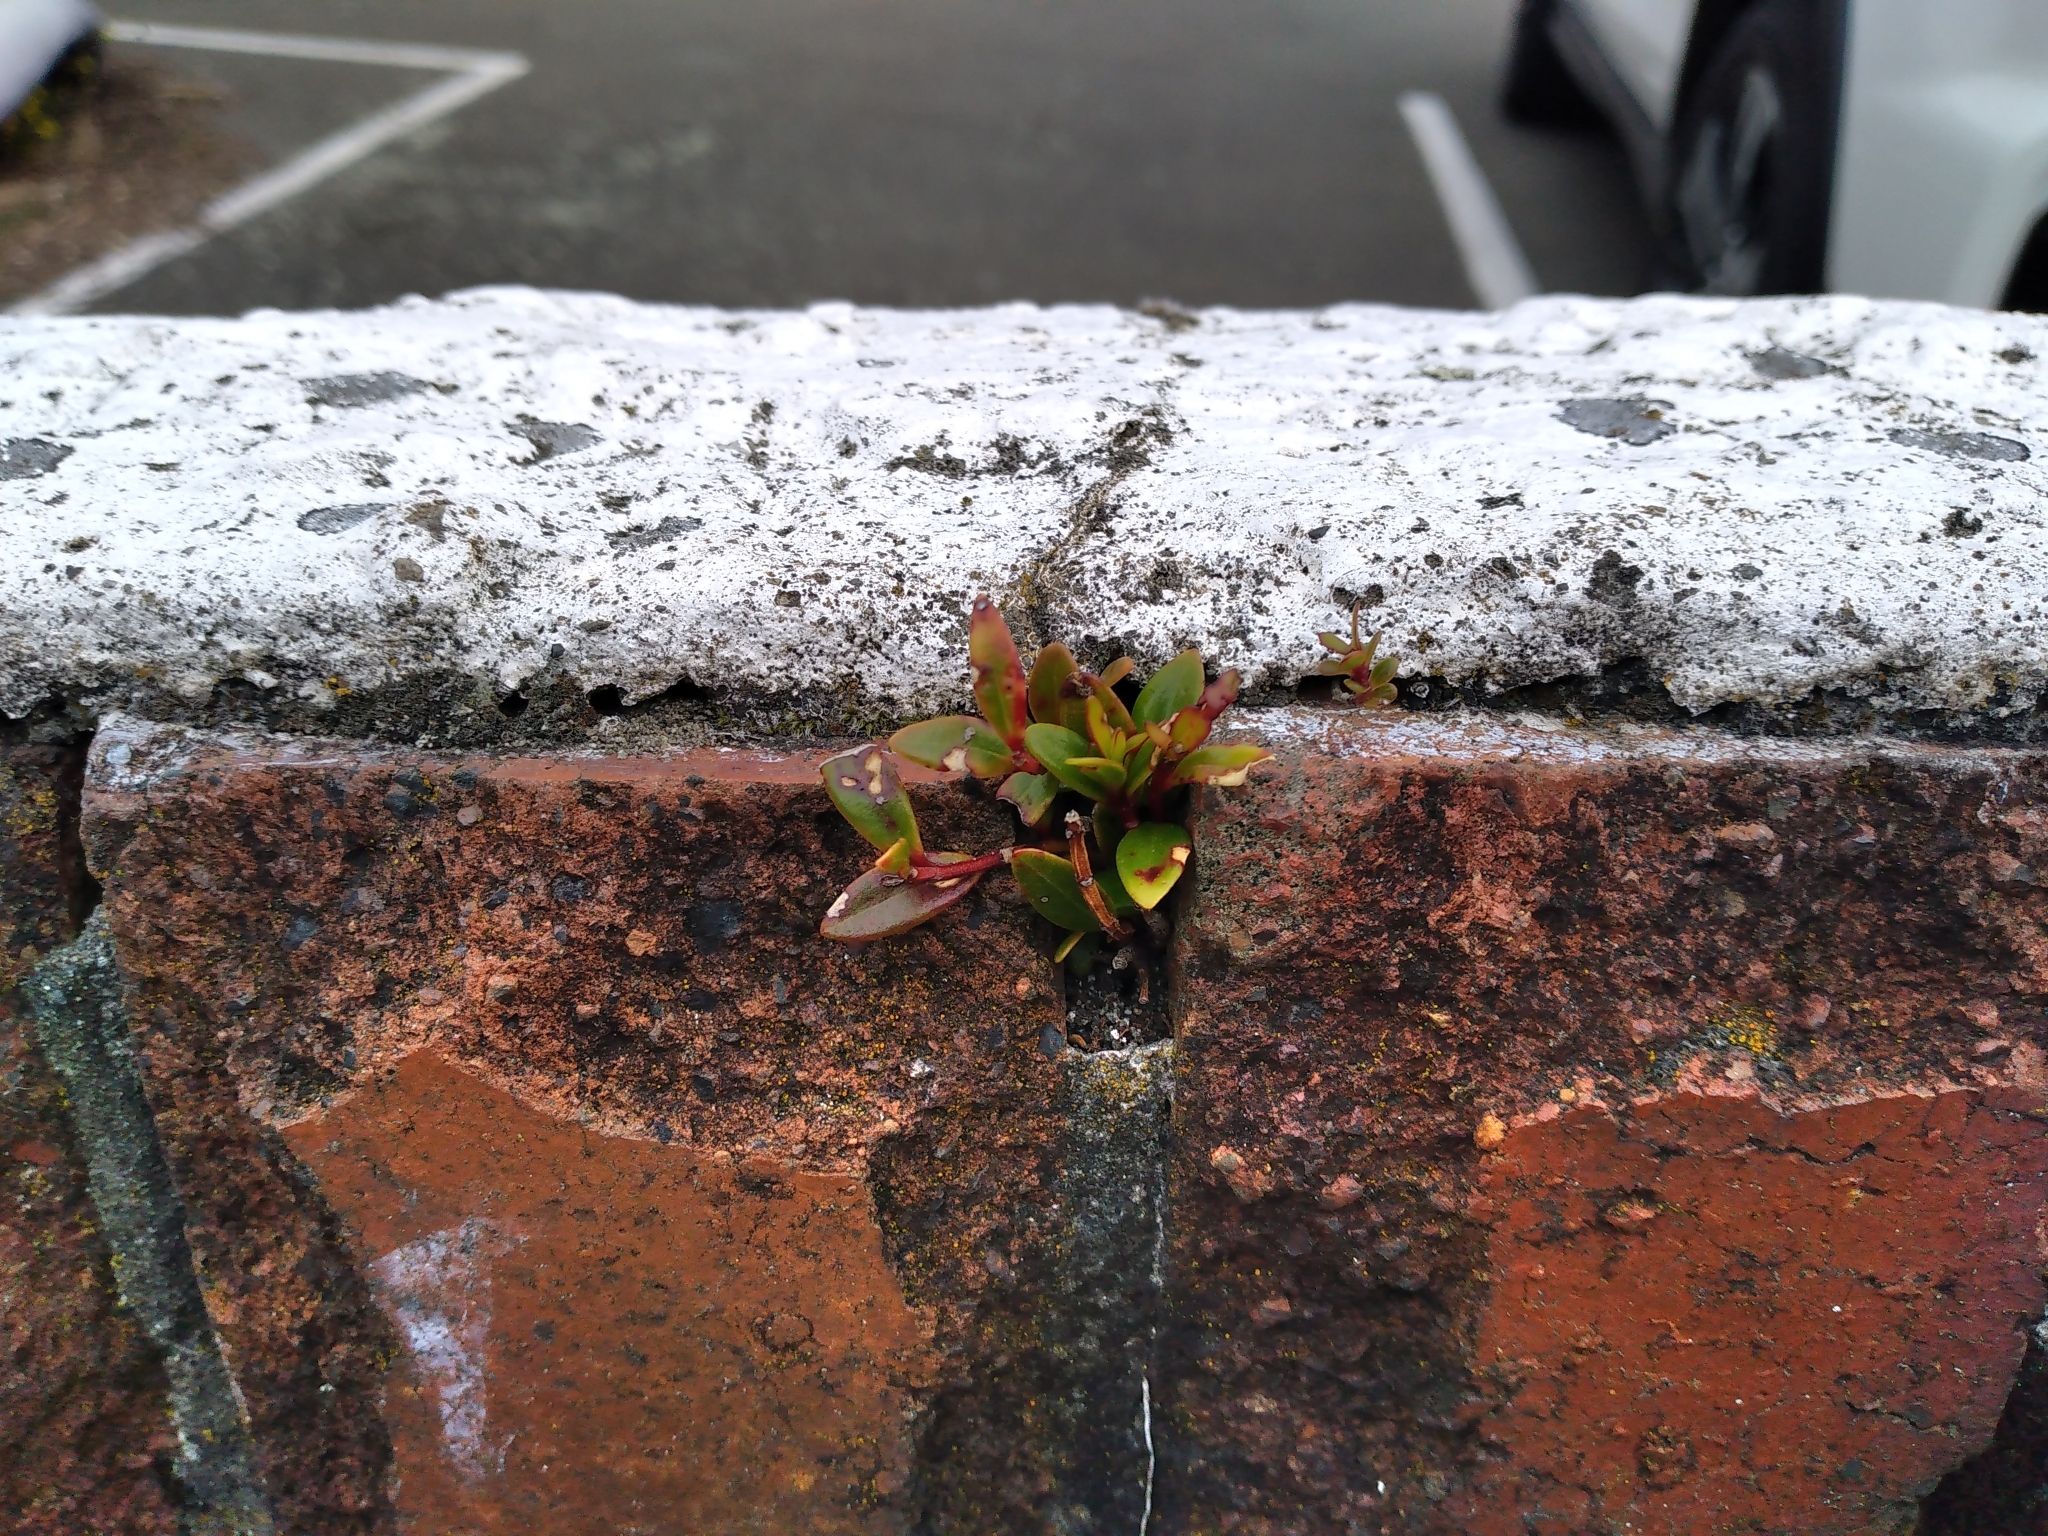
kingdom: Plantae
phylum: Tracheophyta
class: Magnoliopsida
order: Myrtales
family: Myrtaceae
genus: Metrosideros
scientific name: Metrosideros excelsa
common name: New zealand christmastree
